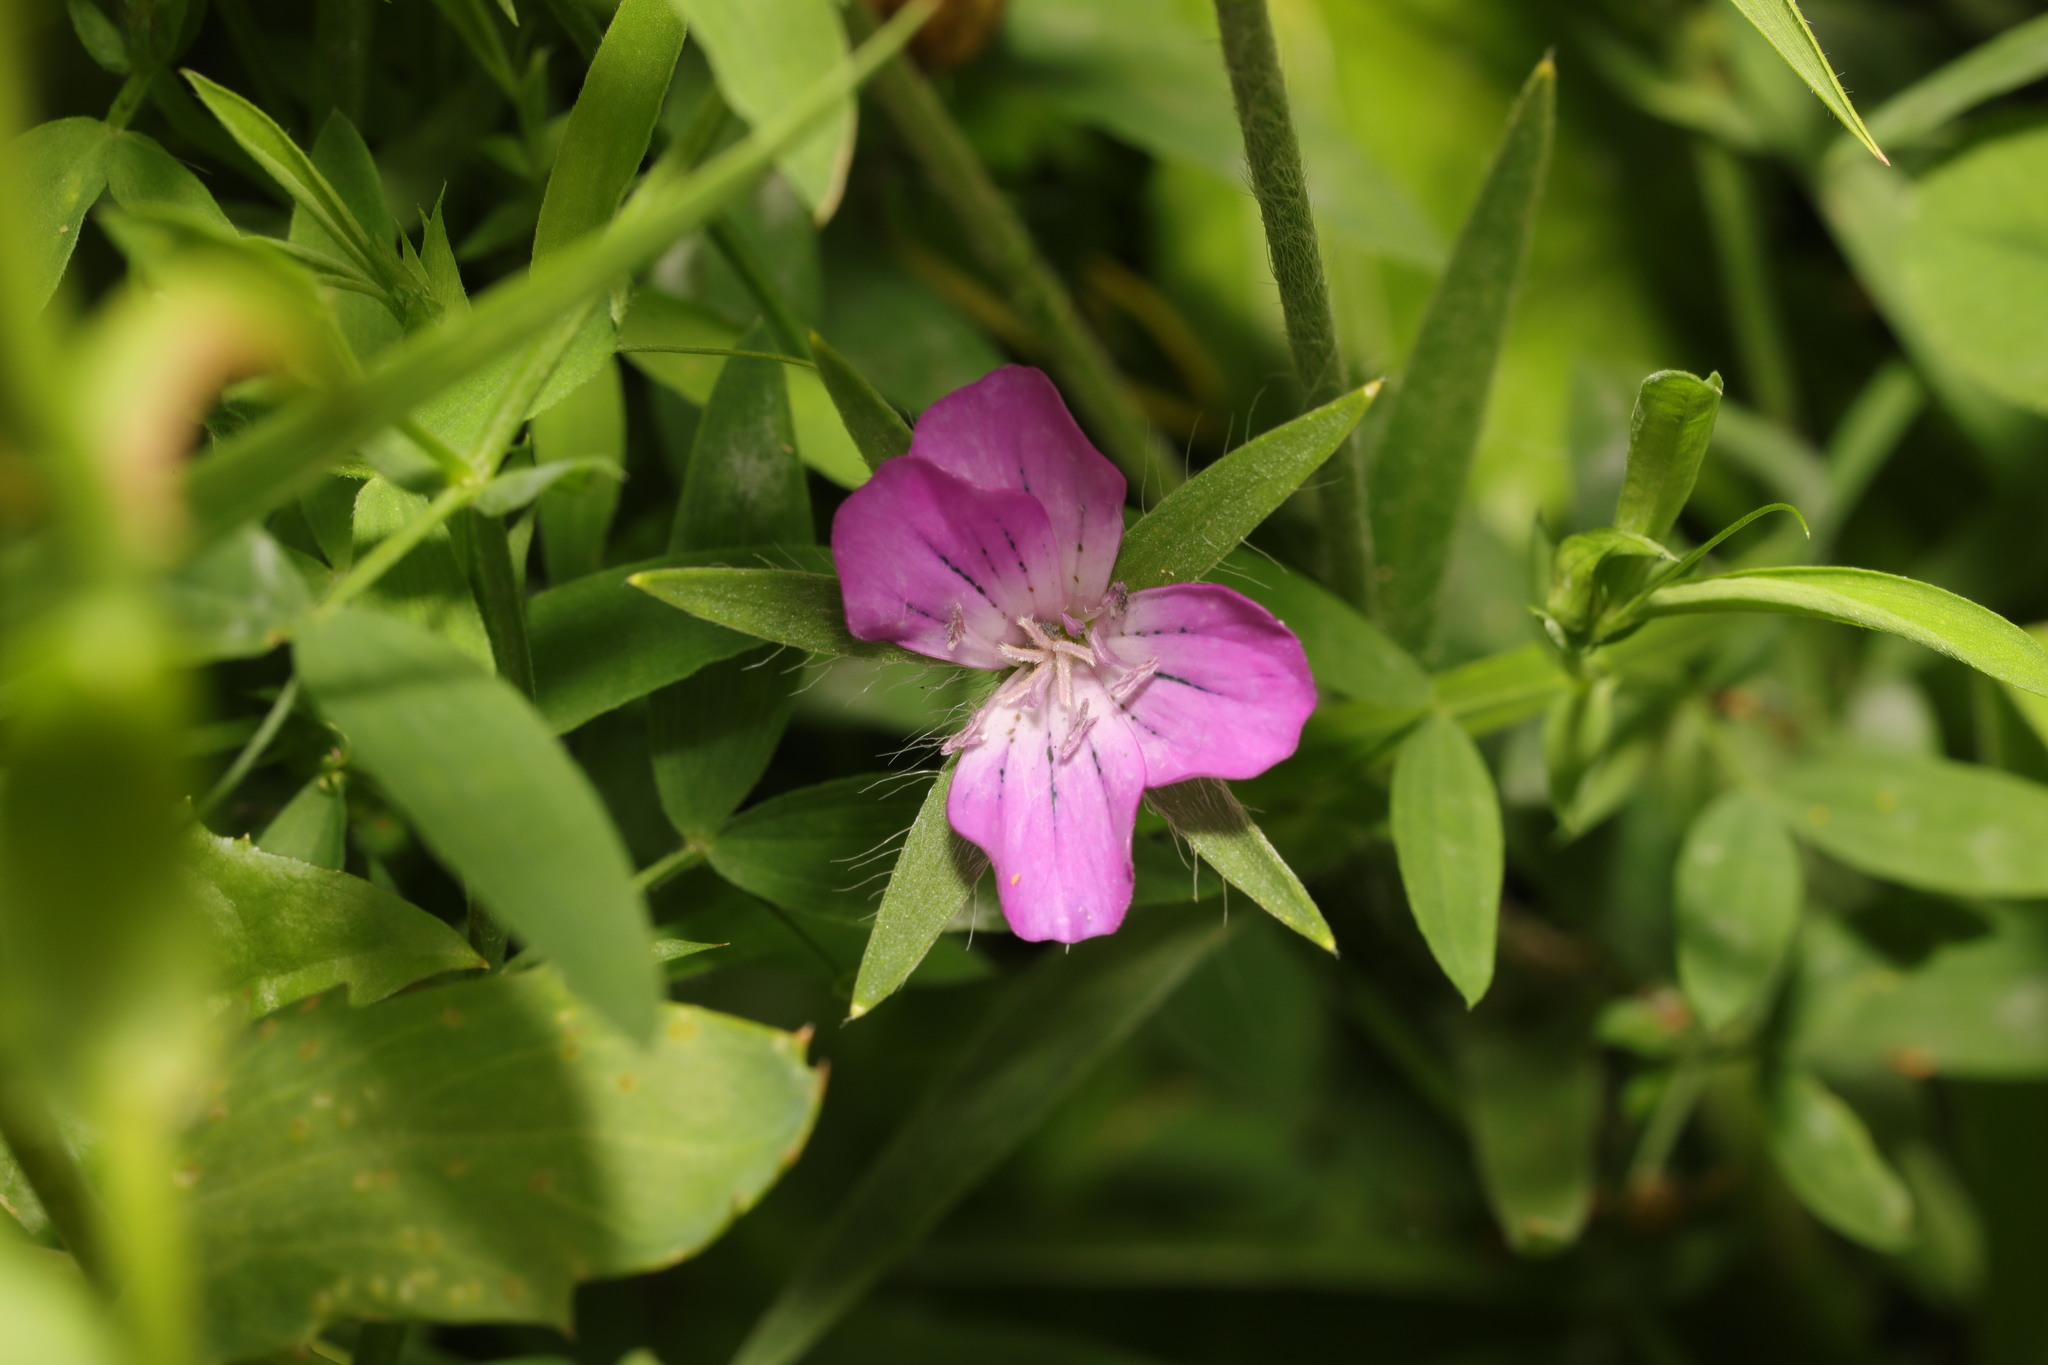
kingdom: Plantae
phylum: Tracheophyta
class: Magnoliopsida
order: Caryophyllales
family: Caryophyllaceae
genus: Agrostemma
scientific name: Agrostemma githago
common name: Common corncockle
